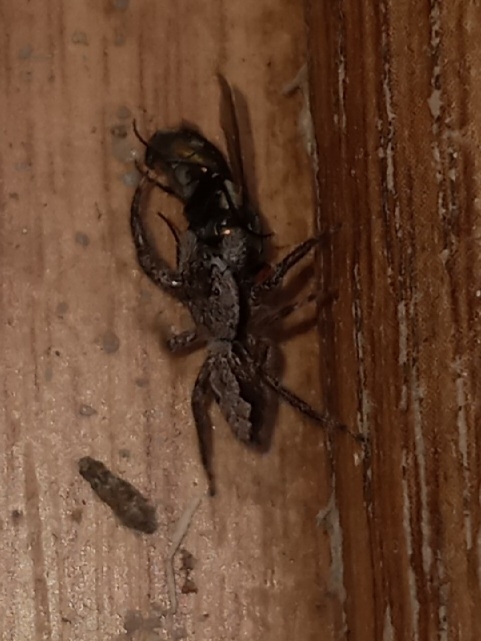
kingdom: Animalia
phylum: Arthropoda
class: Arachnida
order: Araneae
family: Salticidae
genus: Platycryptus
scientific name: Platycryptus undatus
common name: Tan jumping spider
